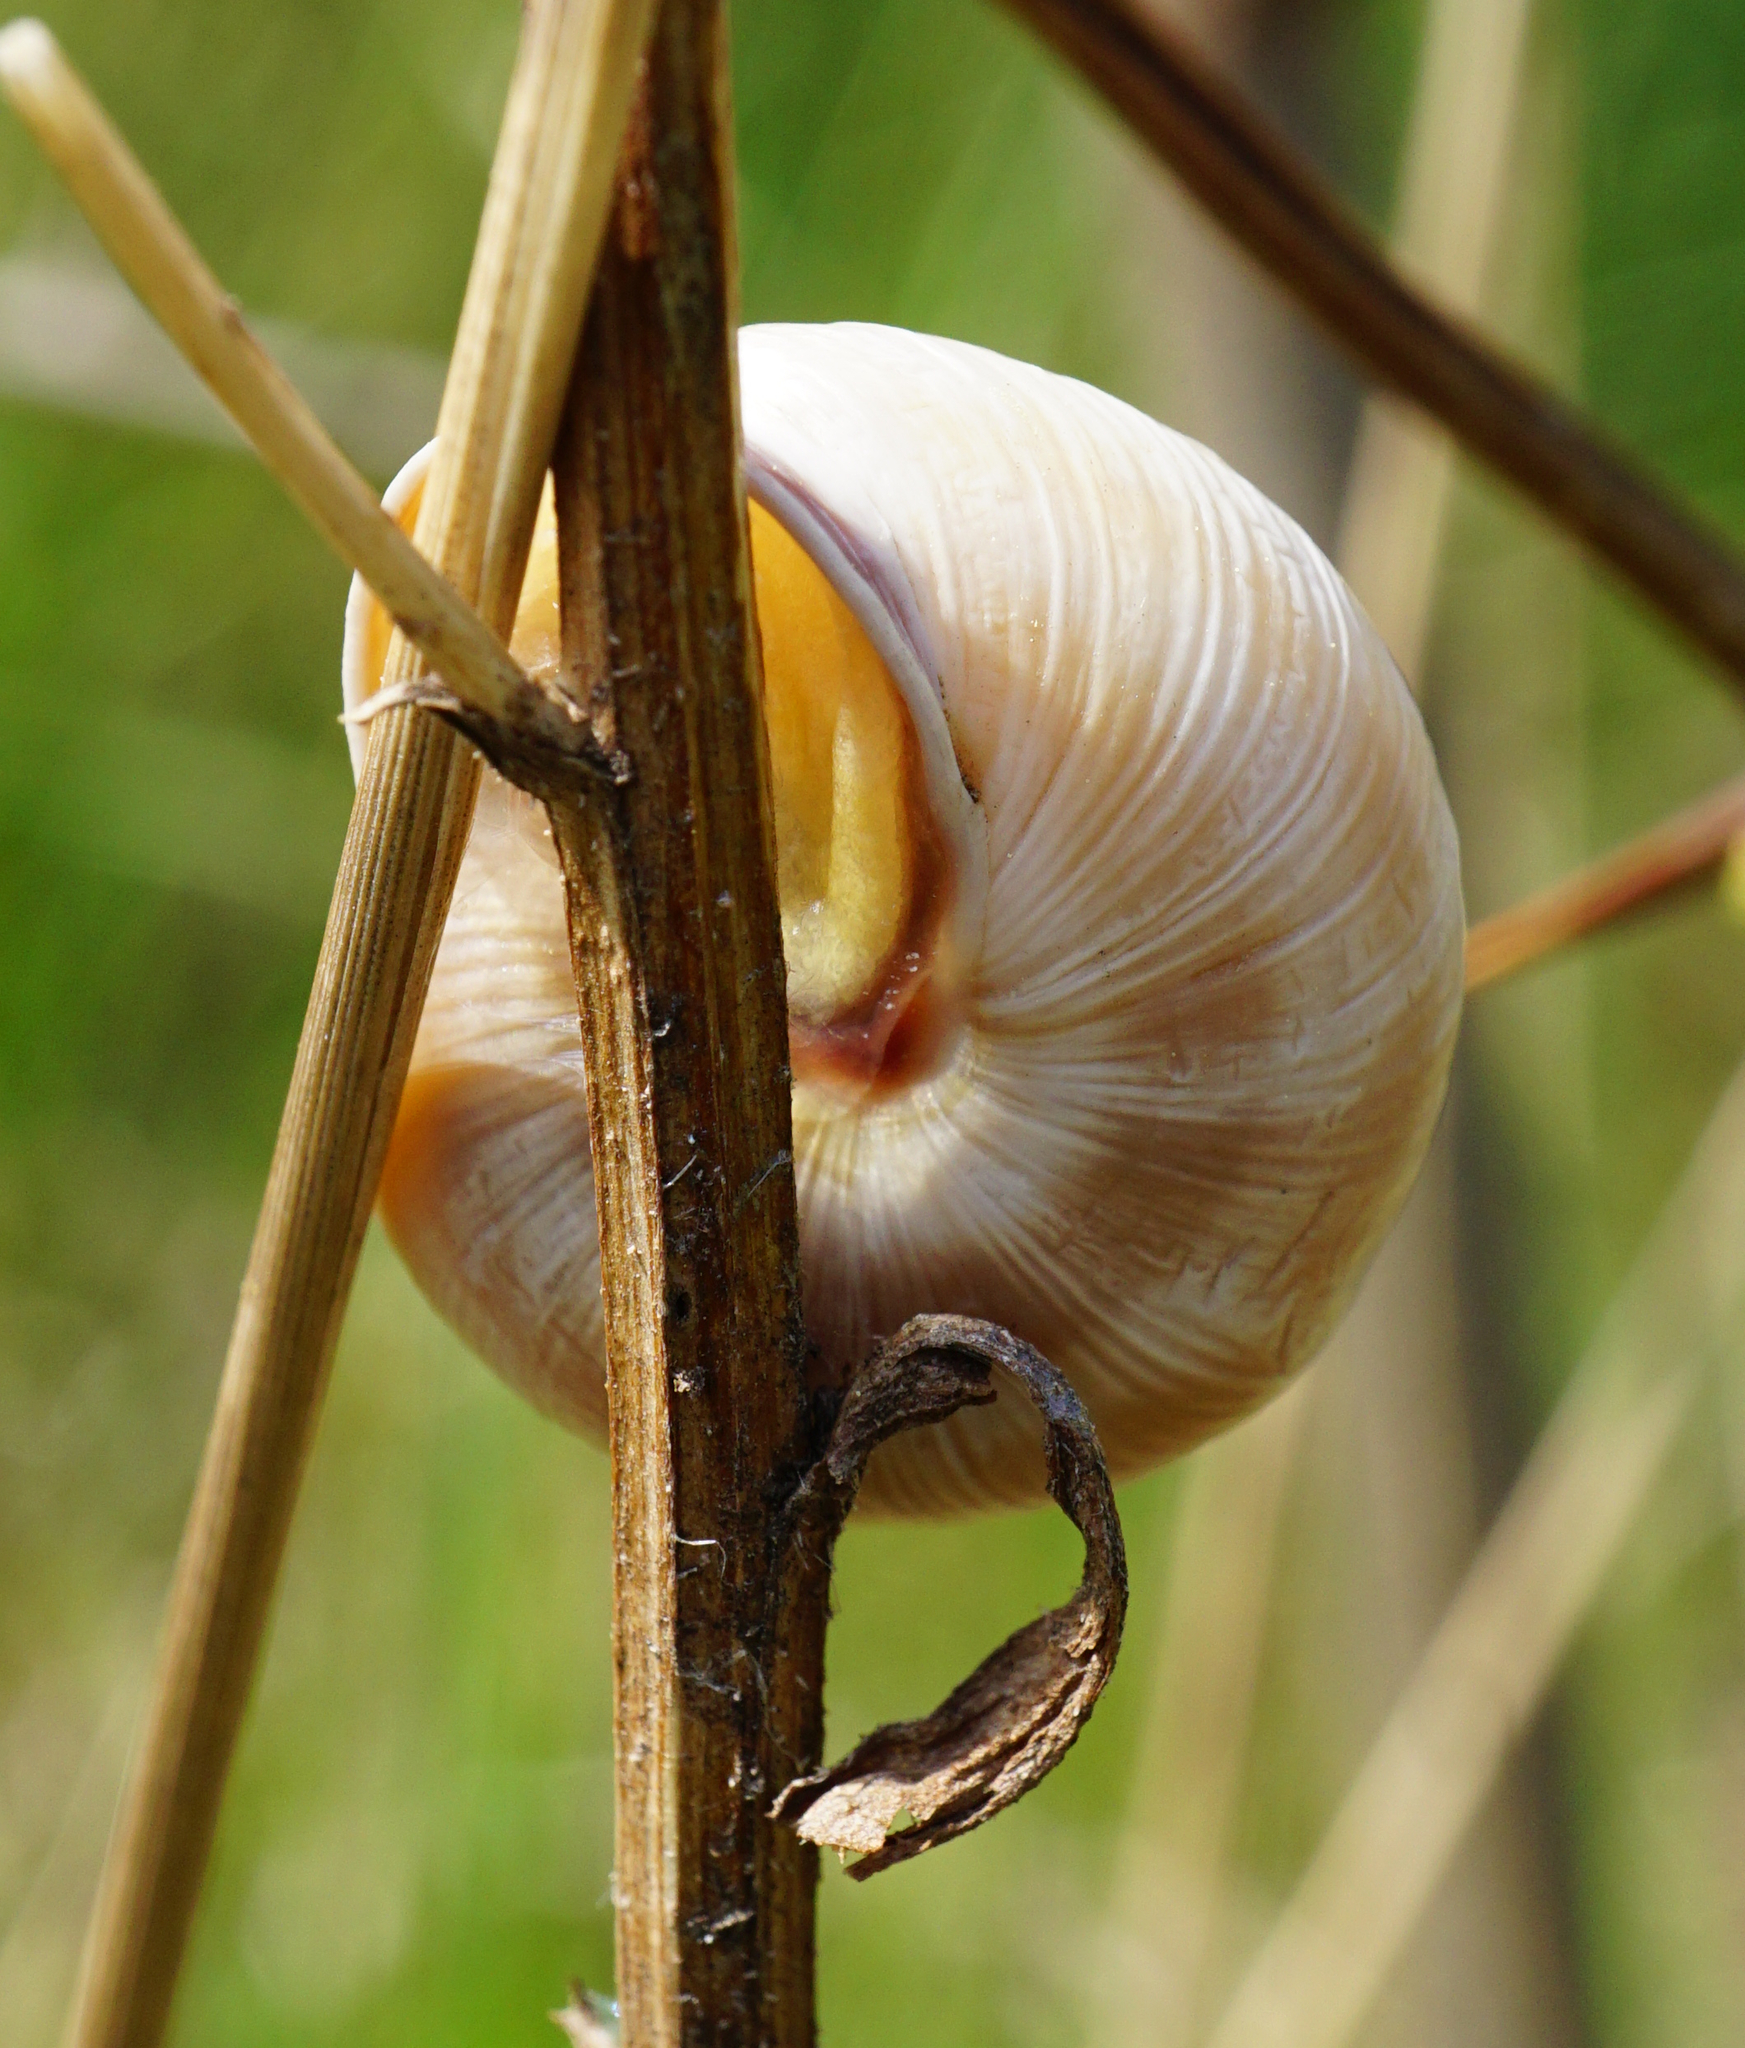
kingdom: Animalia
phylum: Mollusca
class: Gastropoda
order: Stylommatophora
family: Helicidae
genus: Caucasotachea
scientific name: Caucasotachea vindobonensis
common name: European helicid land snail
